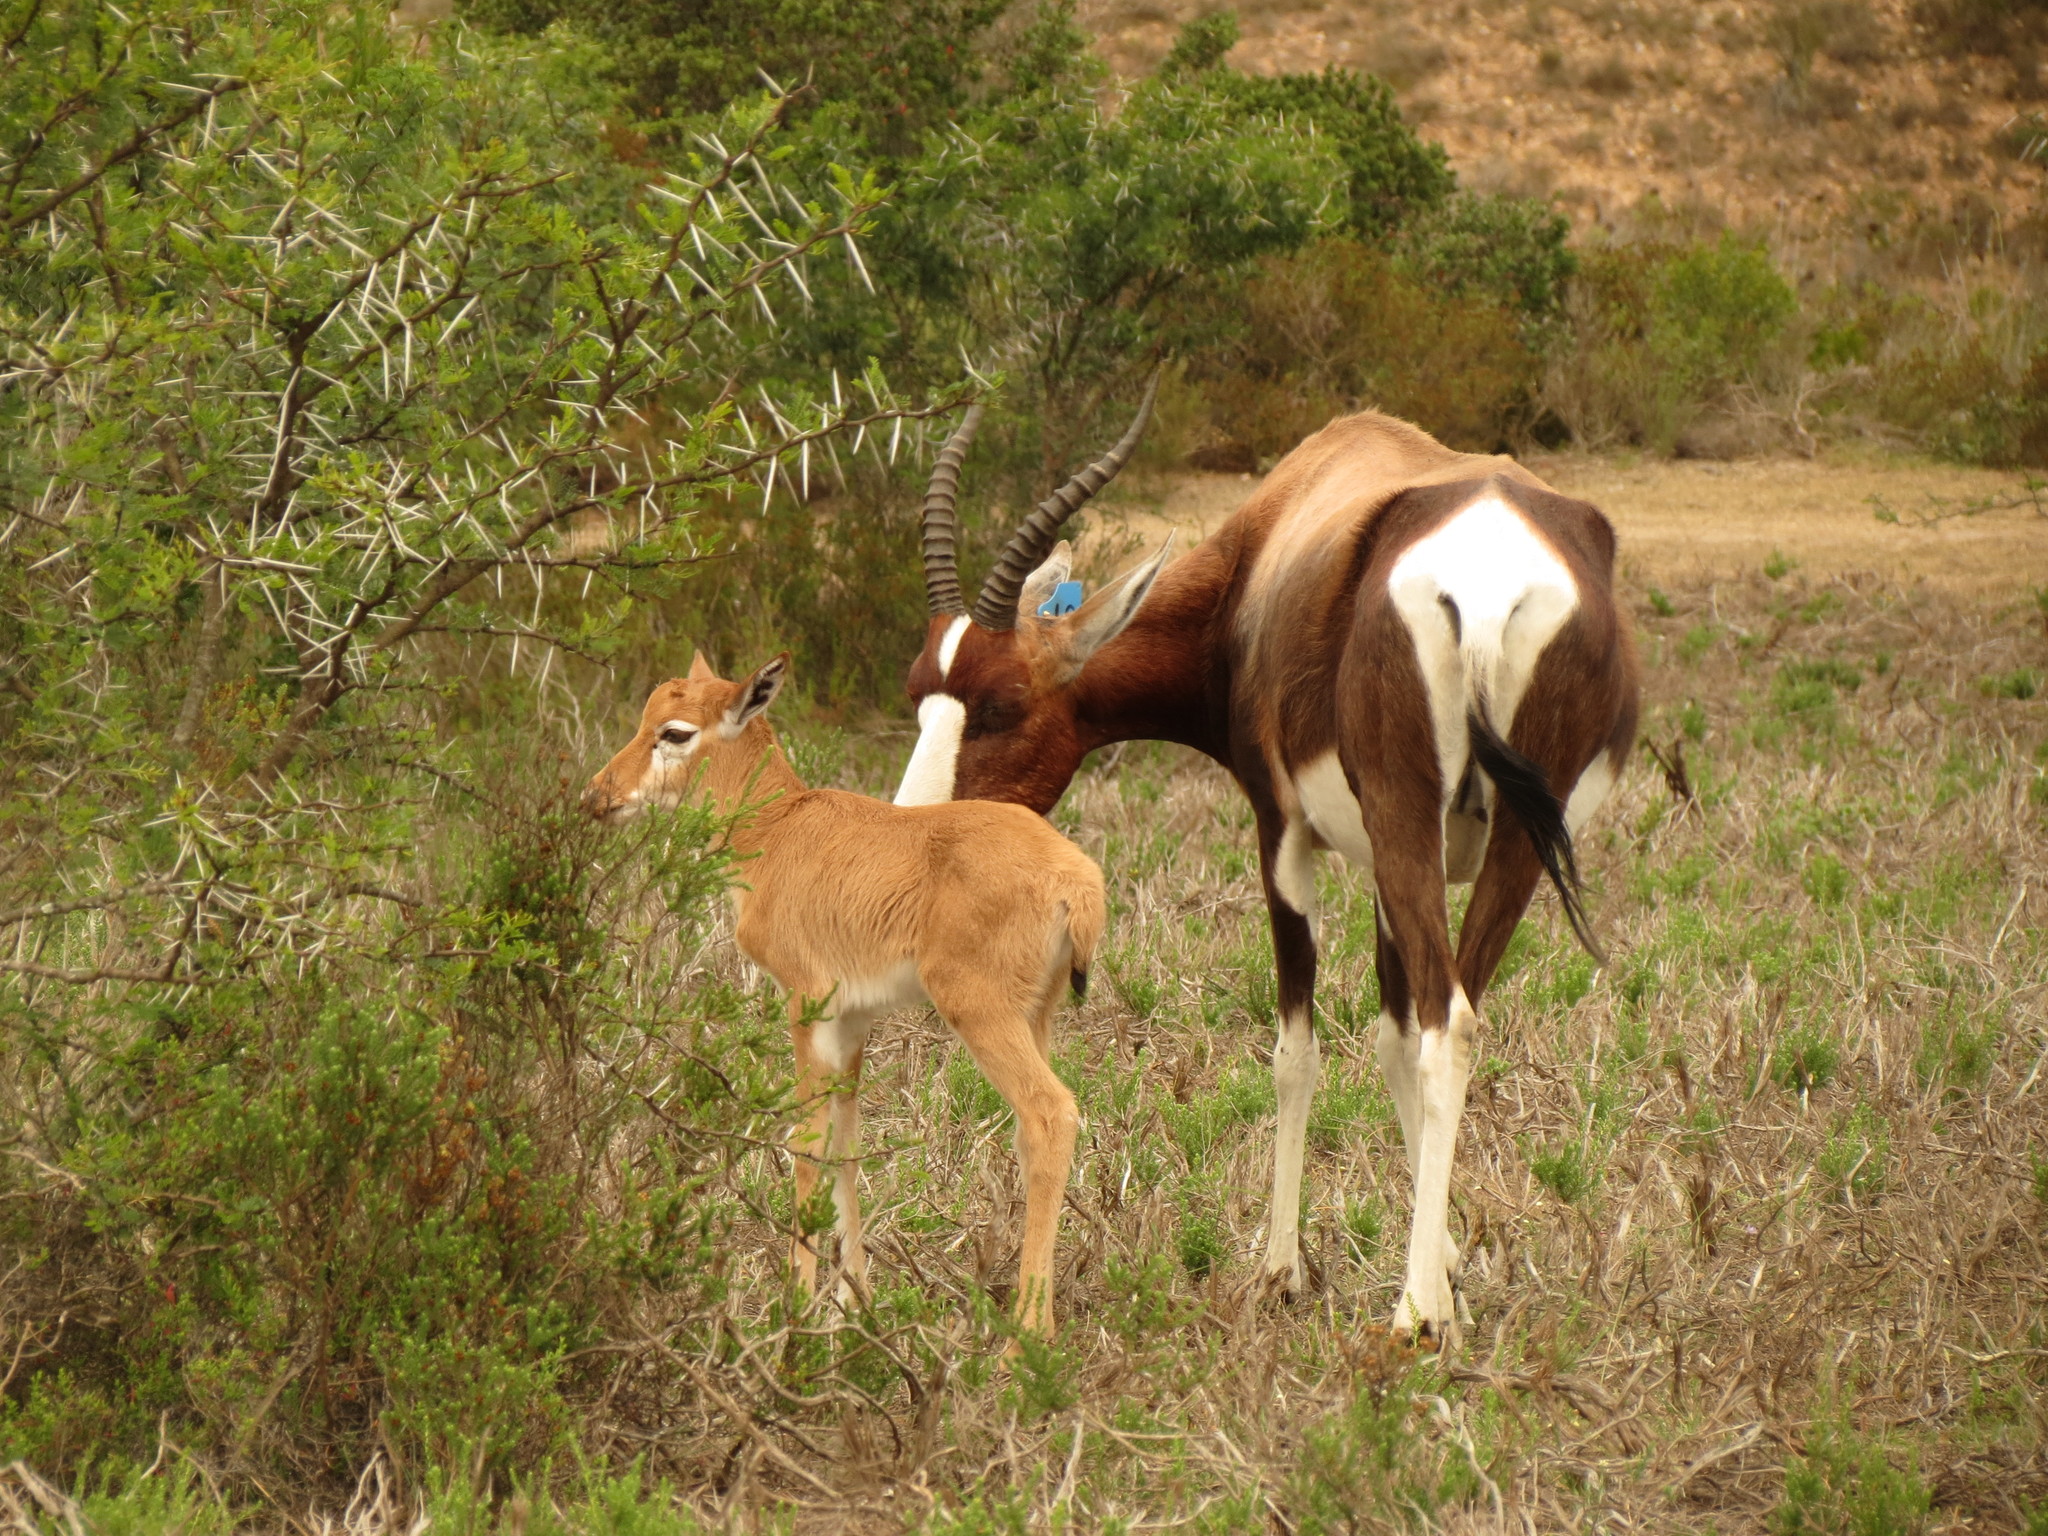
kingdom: Animalia
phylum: Chordata
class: Mammalia
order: Artiodactyla
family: Bovidae
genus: Damaliscus
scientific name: Damaliscus pygargus
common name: Bontebok
